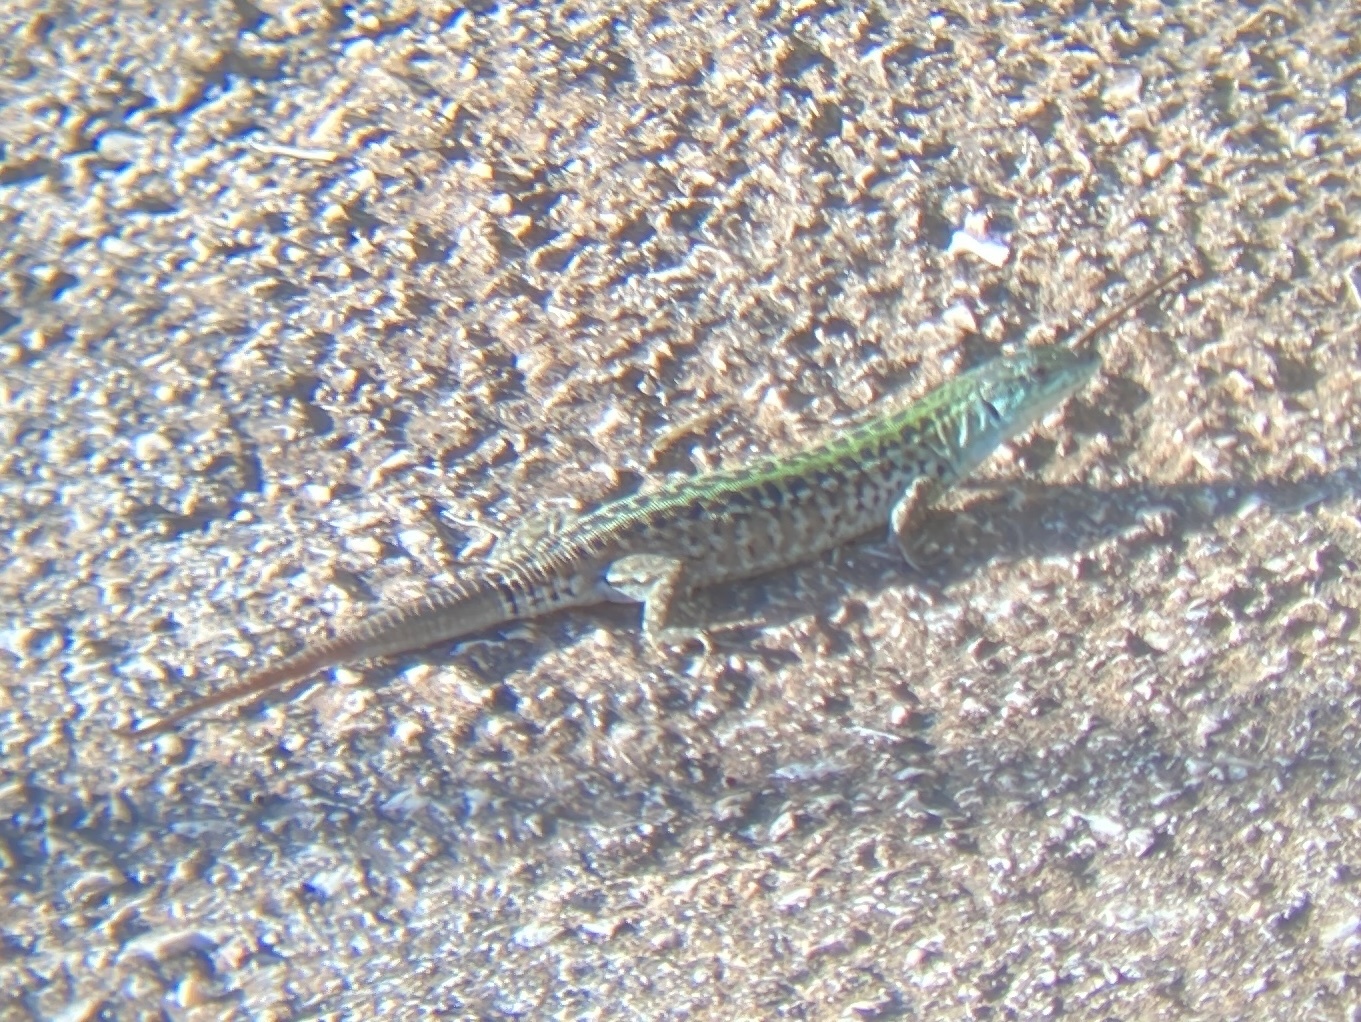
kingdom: Animalia
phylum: Chordata
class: Squamata
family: Lacertidae
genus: Podarcis
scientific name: Podarcis siculus
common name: Italian wall lizard
